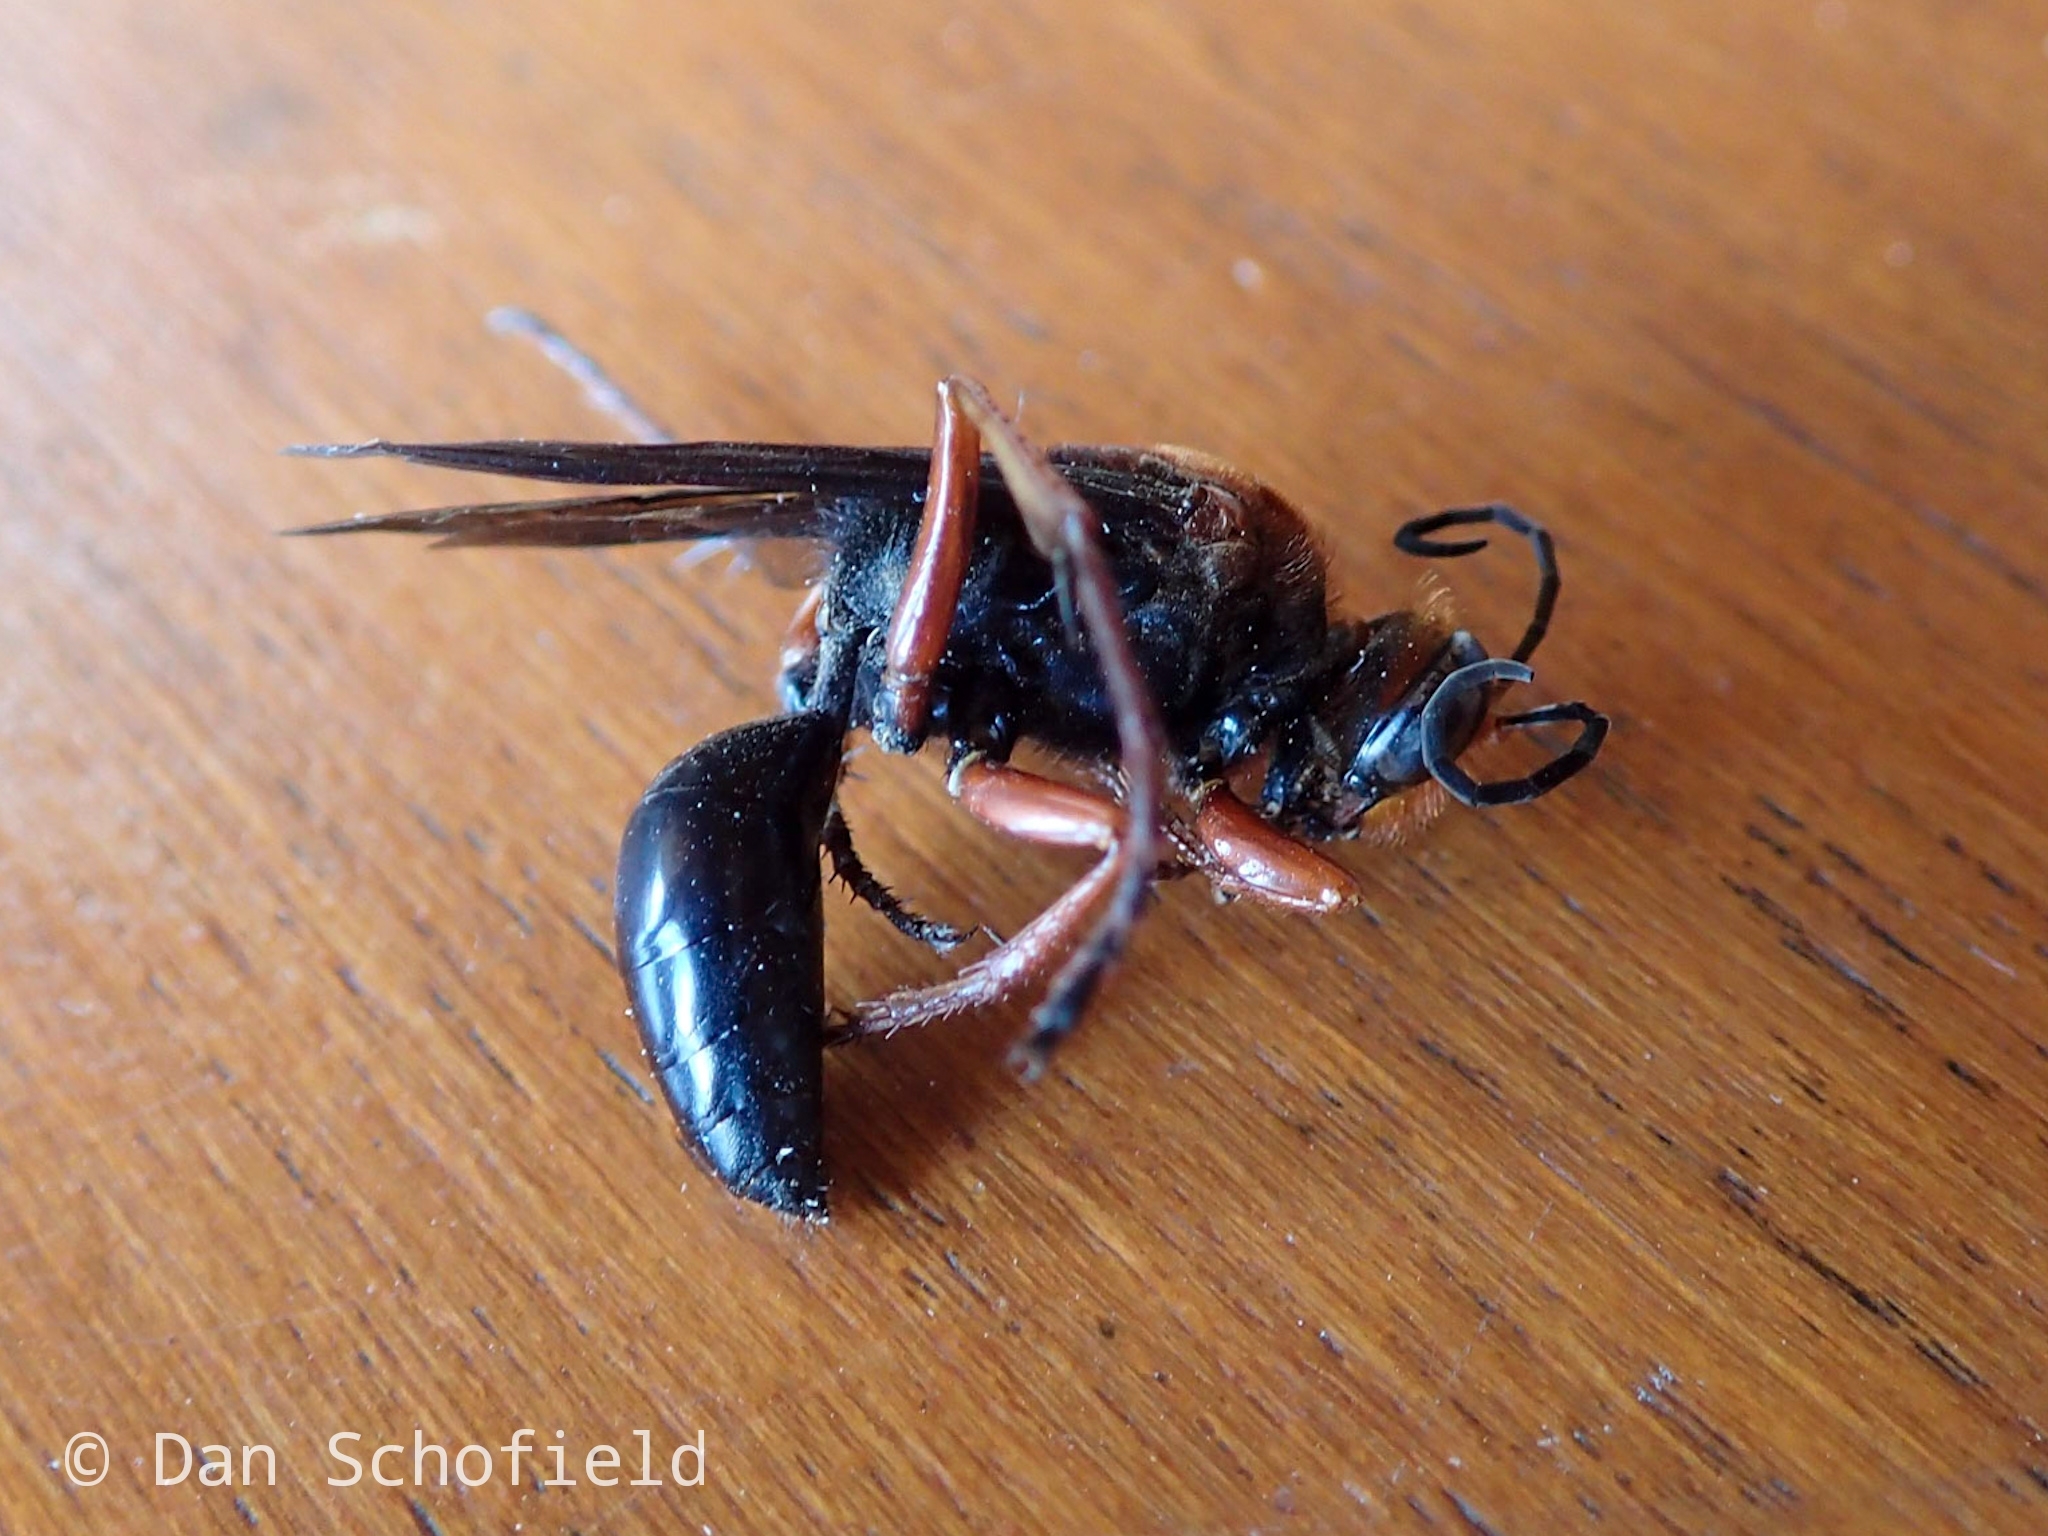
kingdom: Animalia
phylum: Arthropoda
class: Insecta
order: Hymenoptera
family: Sphecidae
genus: Sphex
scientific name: Sphex sericeus
